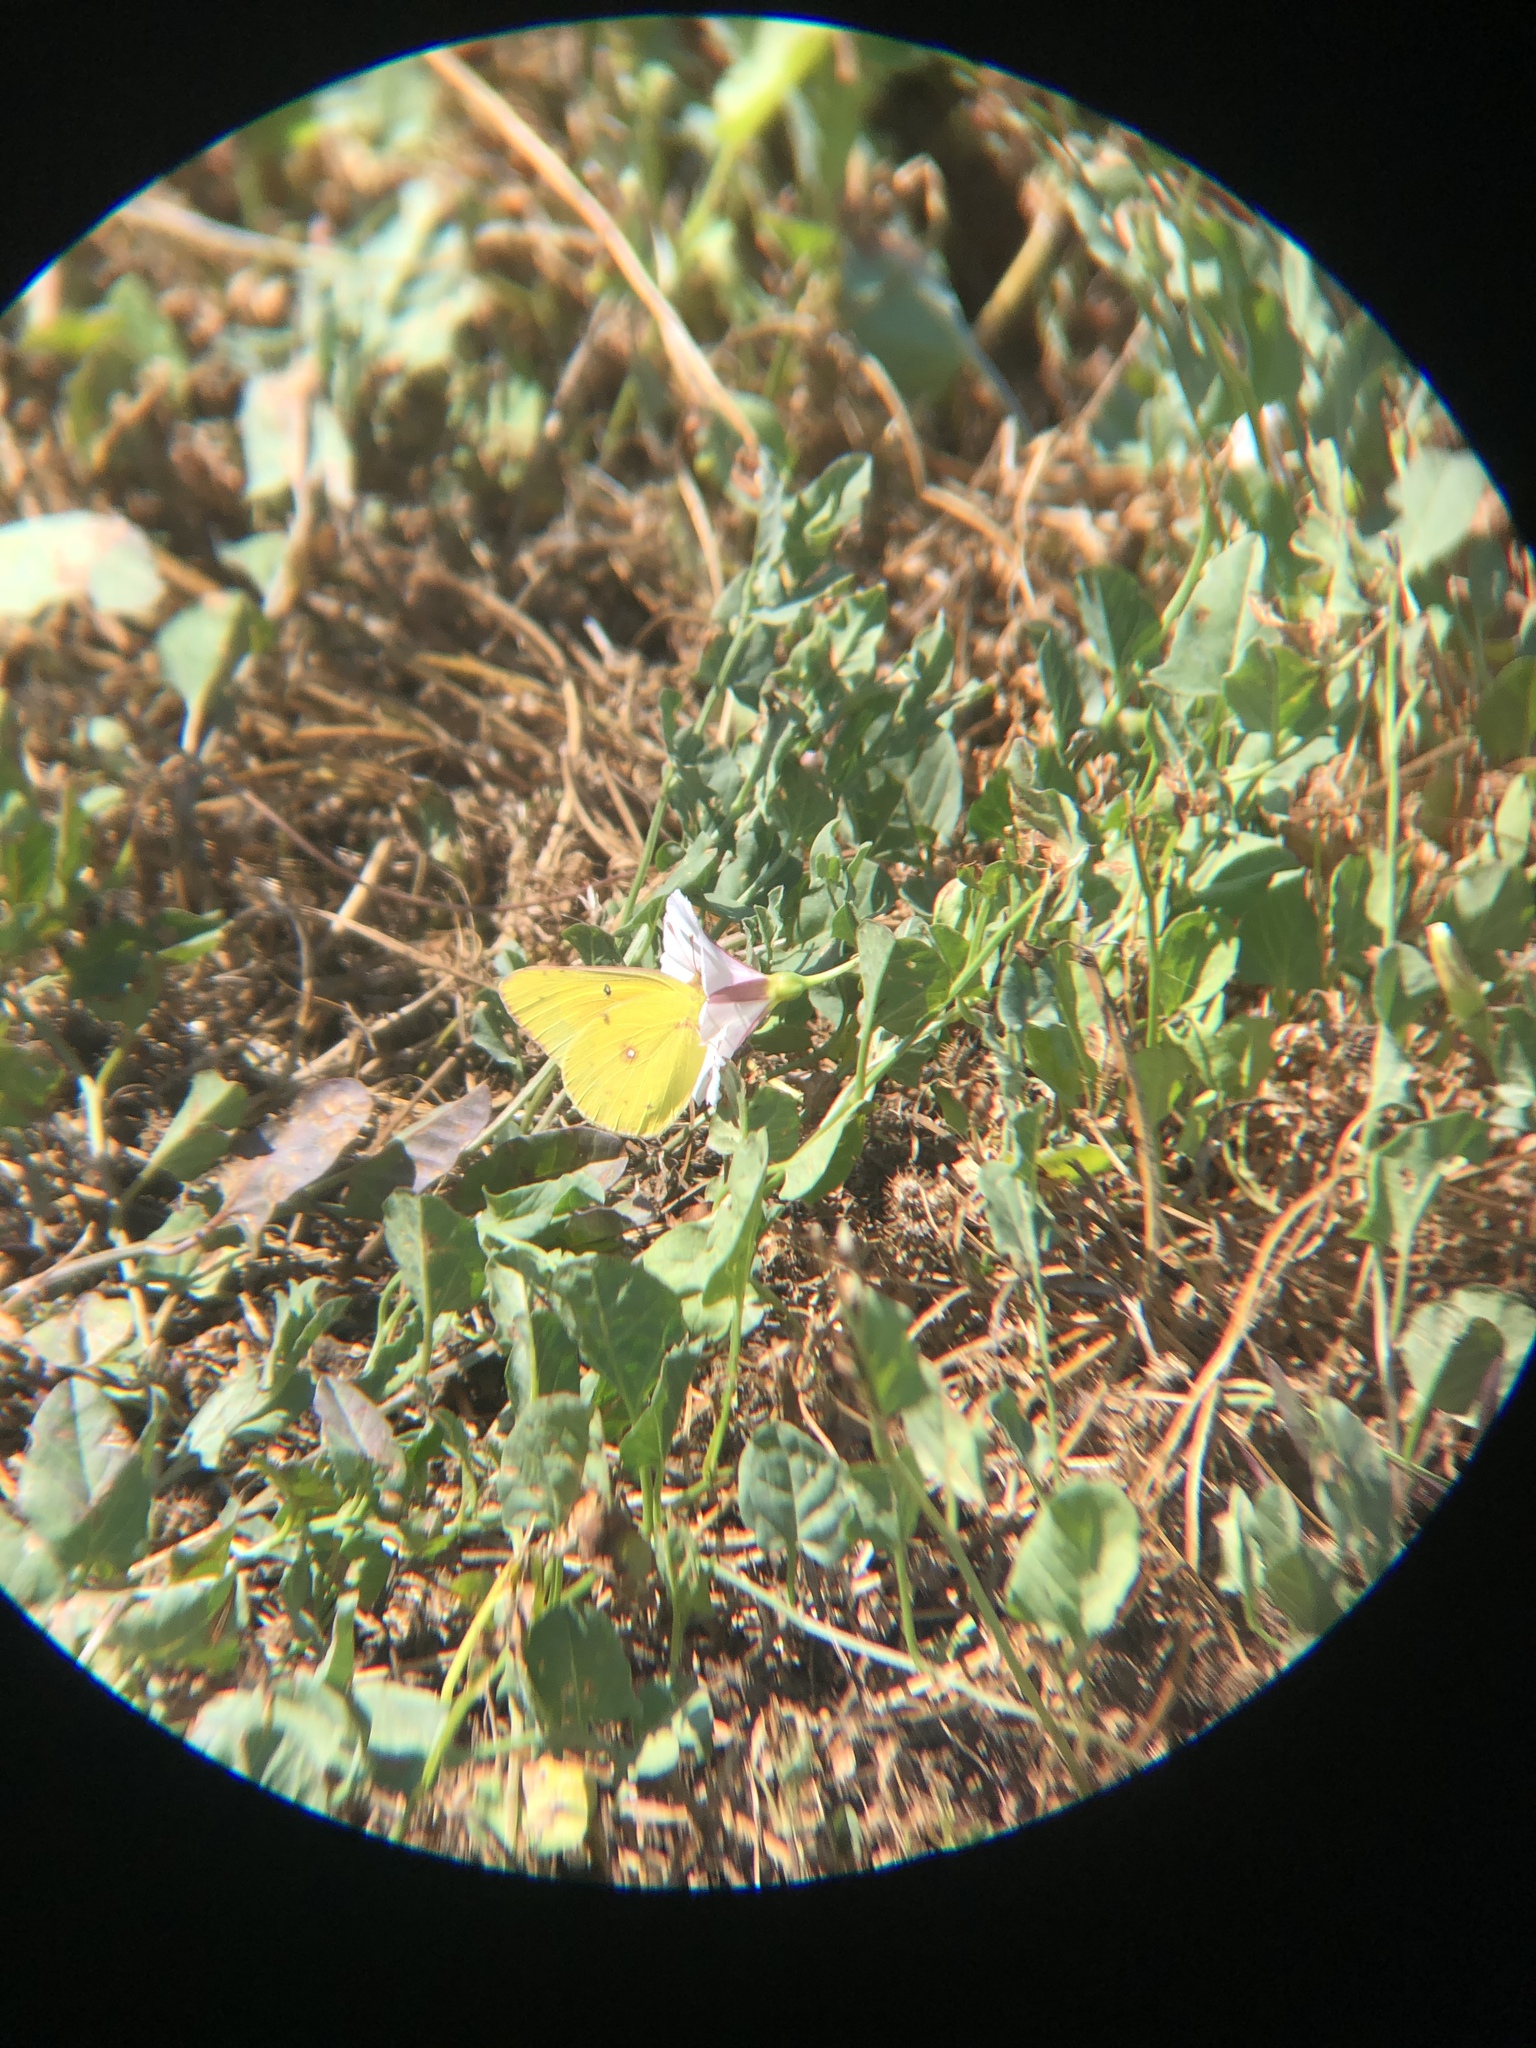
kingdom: Animalia
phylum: Arthropoda
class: Insecta
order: Lepidoptera
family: Pieridae
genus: Colias
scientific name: Colias eurytheme
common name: Alfalfa butterfly
